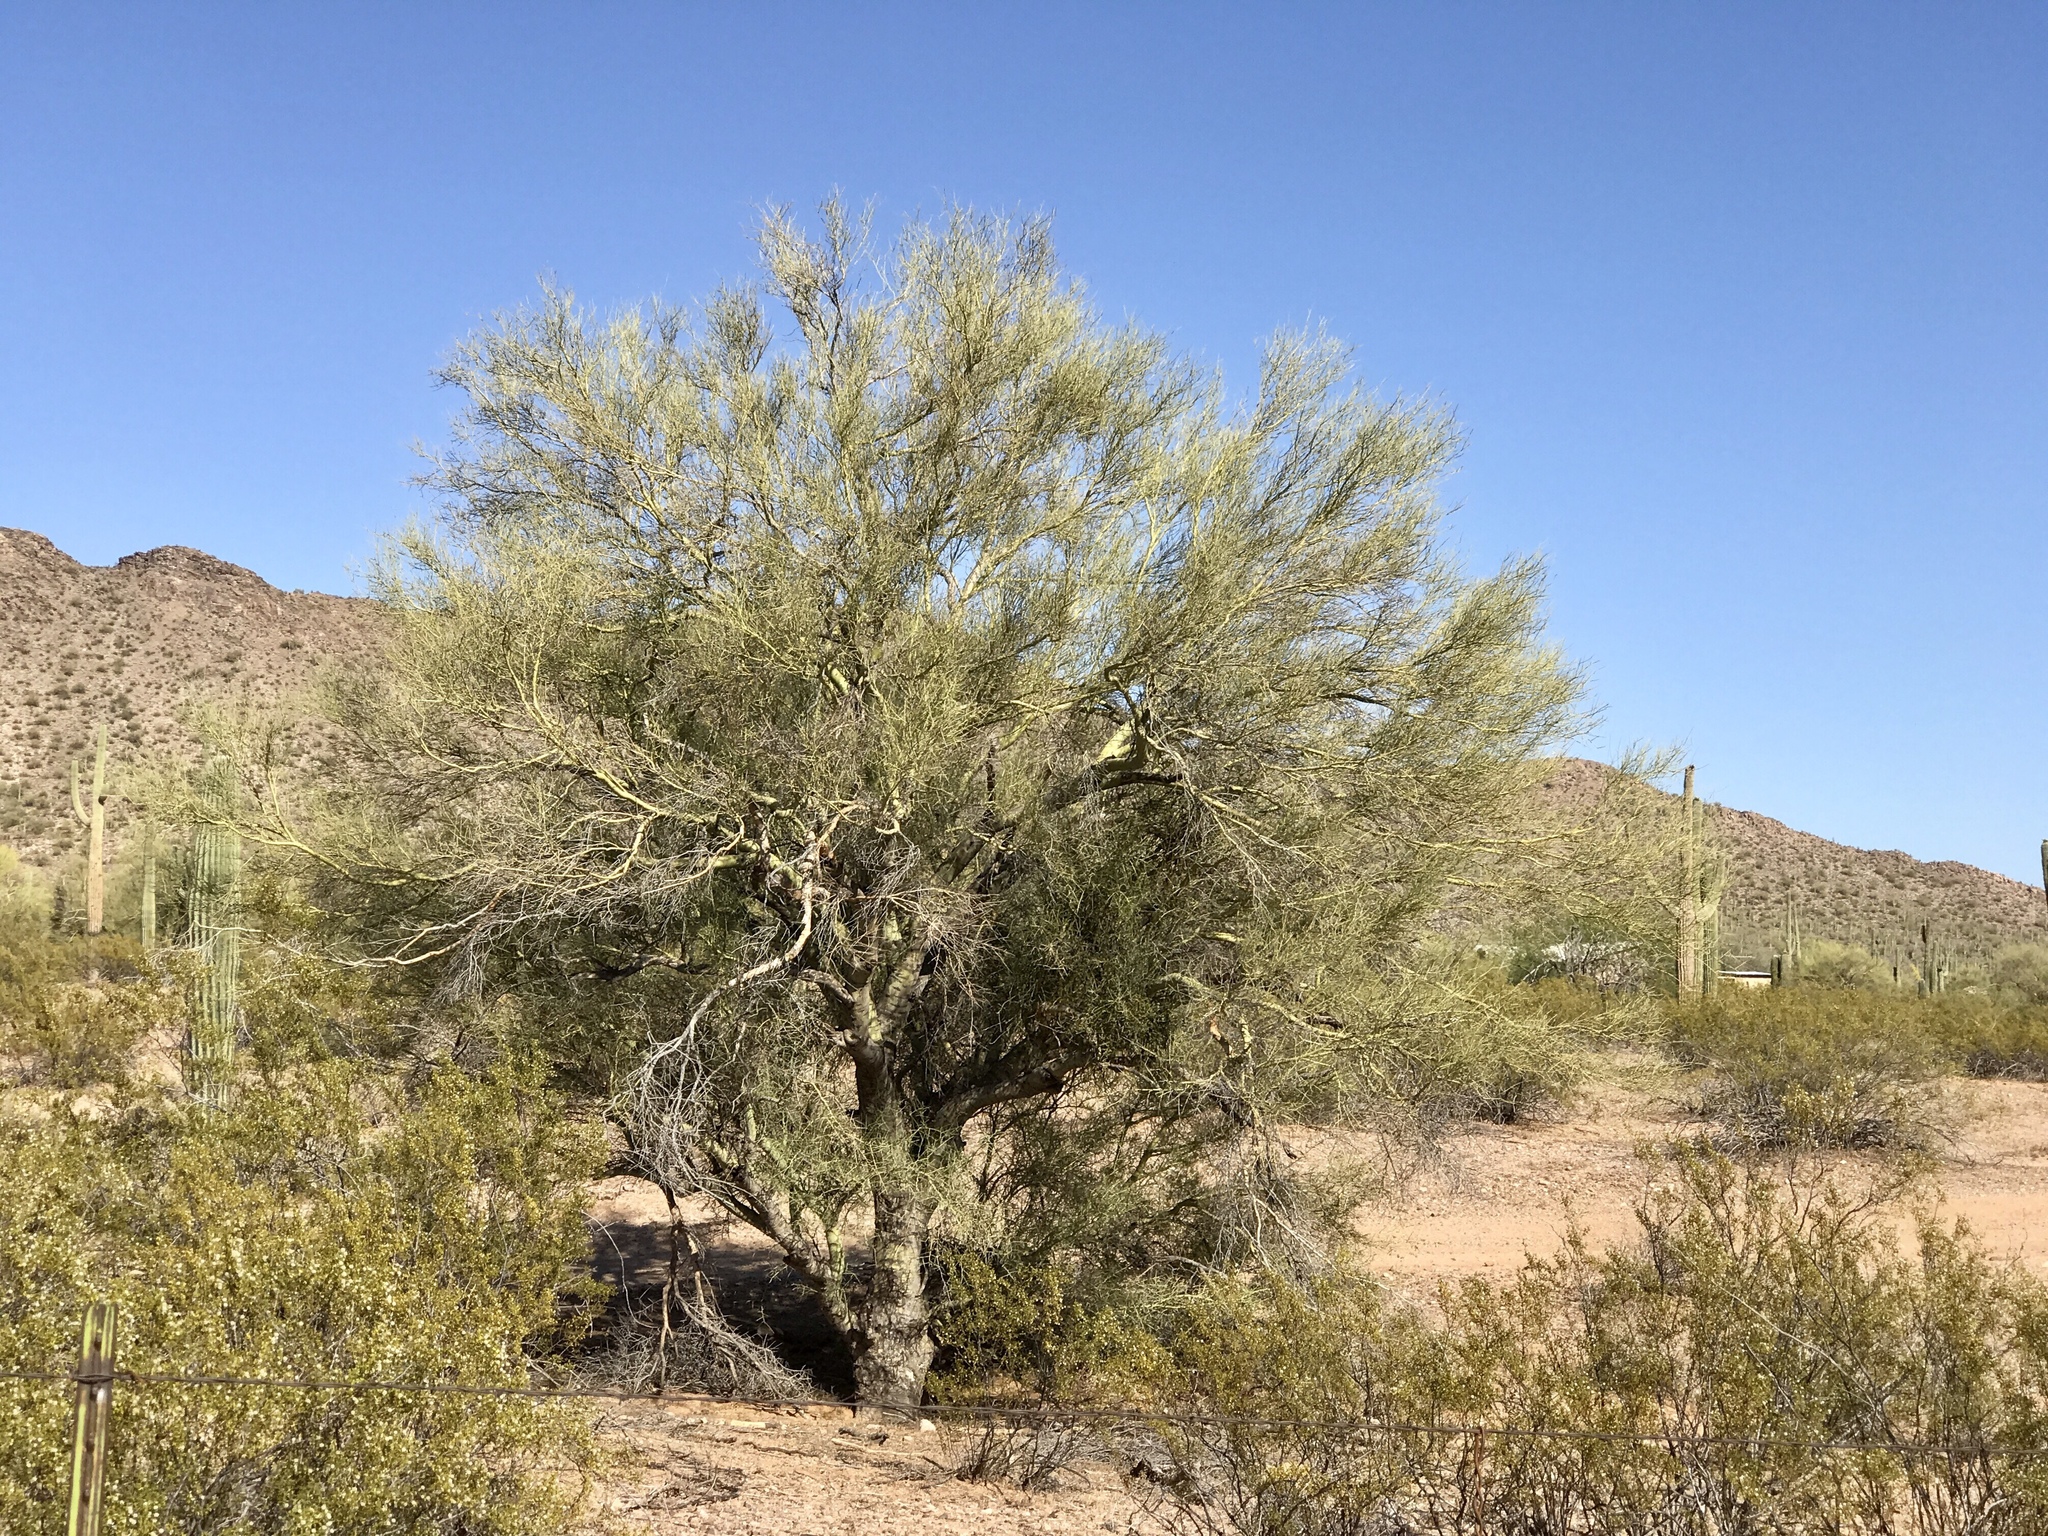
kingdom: Plantae
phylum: Tracheophyta
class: Magnoliopsida
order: Fabales
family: Fabaceae
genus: Parkinsonia
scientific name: Parkinsonia florida
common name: Blue paloverde
